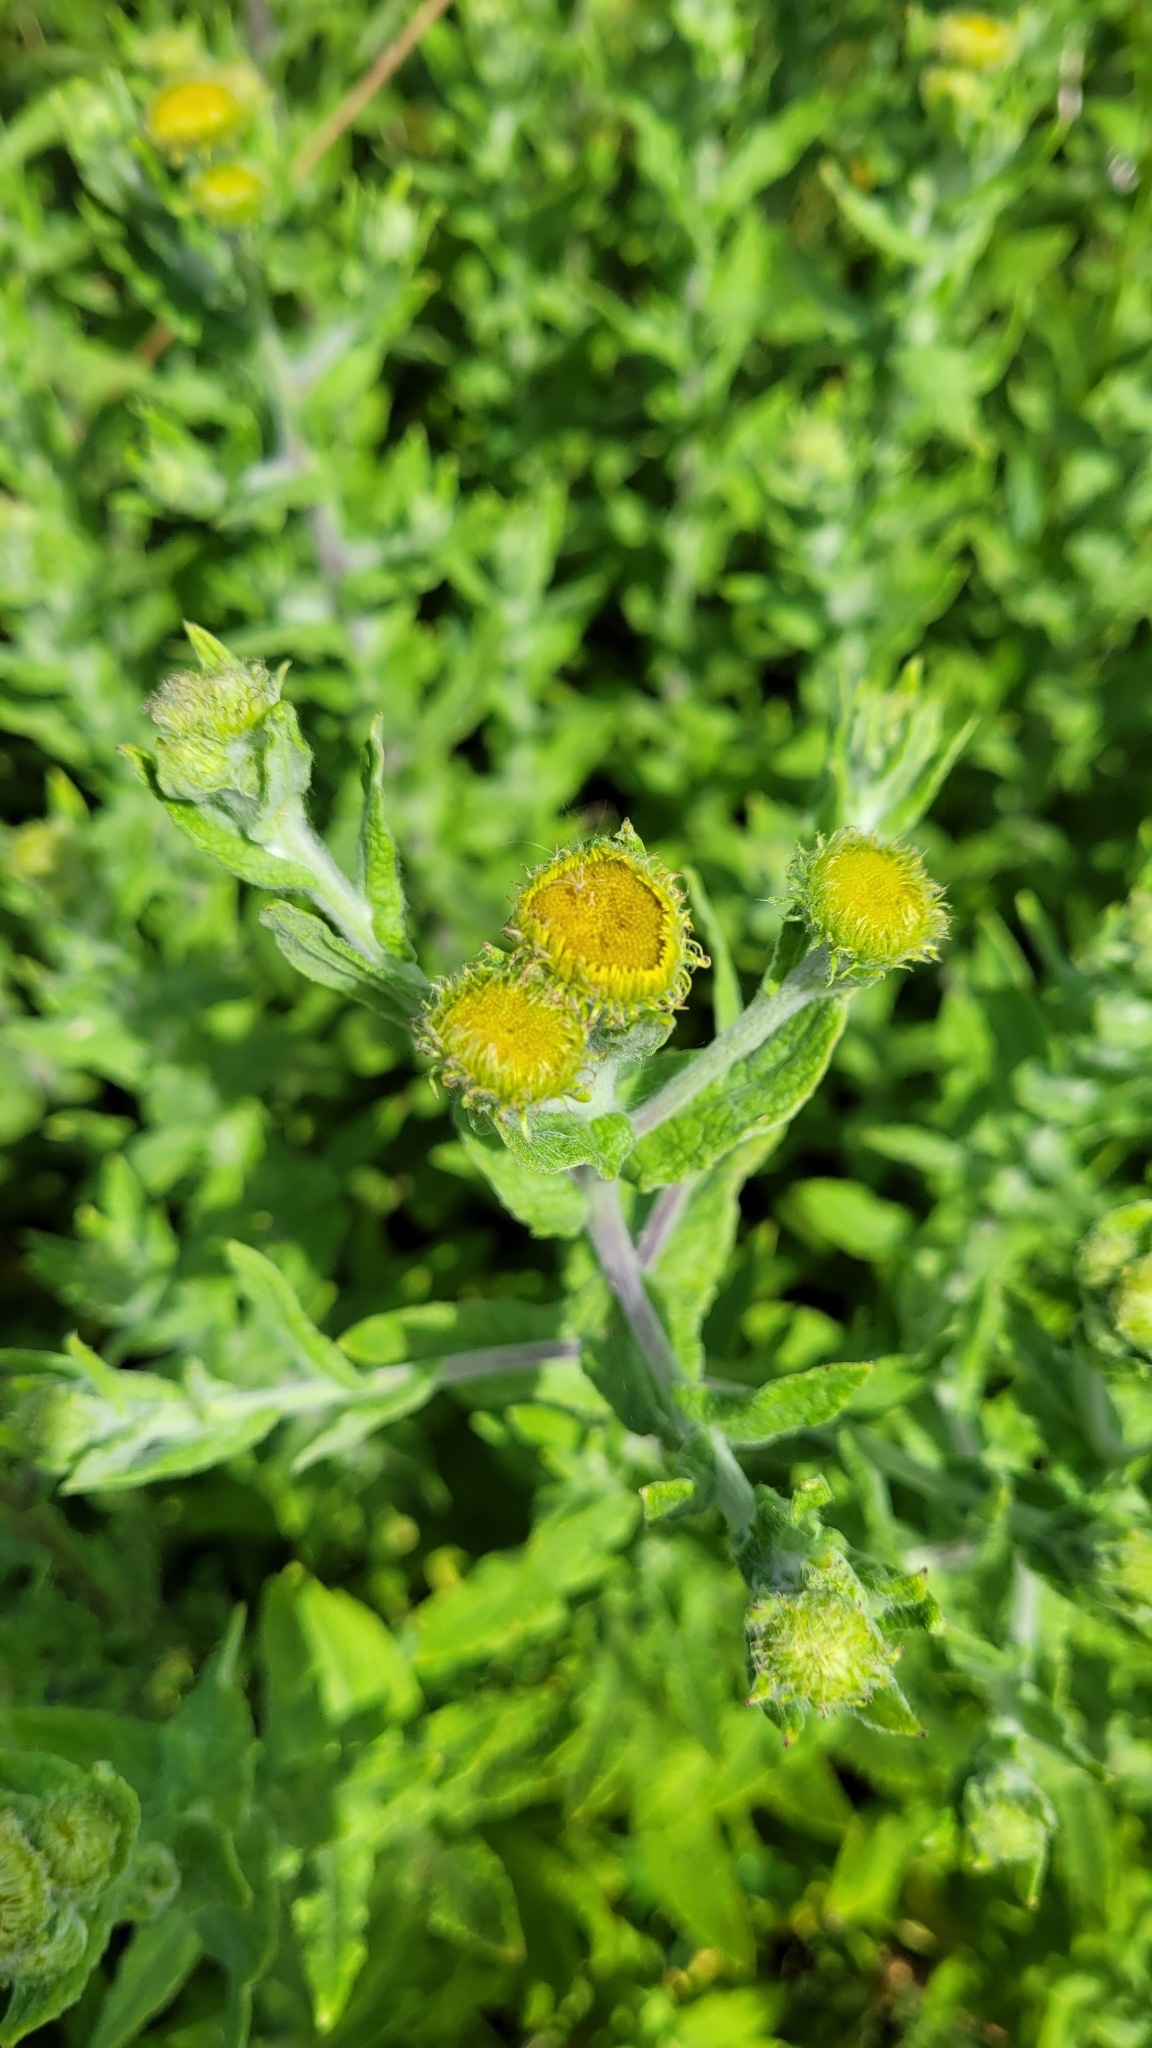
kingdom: Plantae
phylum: Tracheophyta
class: Magnoliopsida
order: Asterales
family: Asteraceae
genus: Pulicaria
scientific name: Pulicaria dysenterica
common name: Common fleabane
